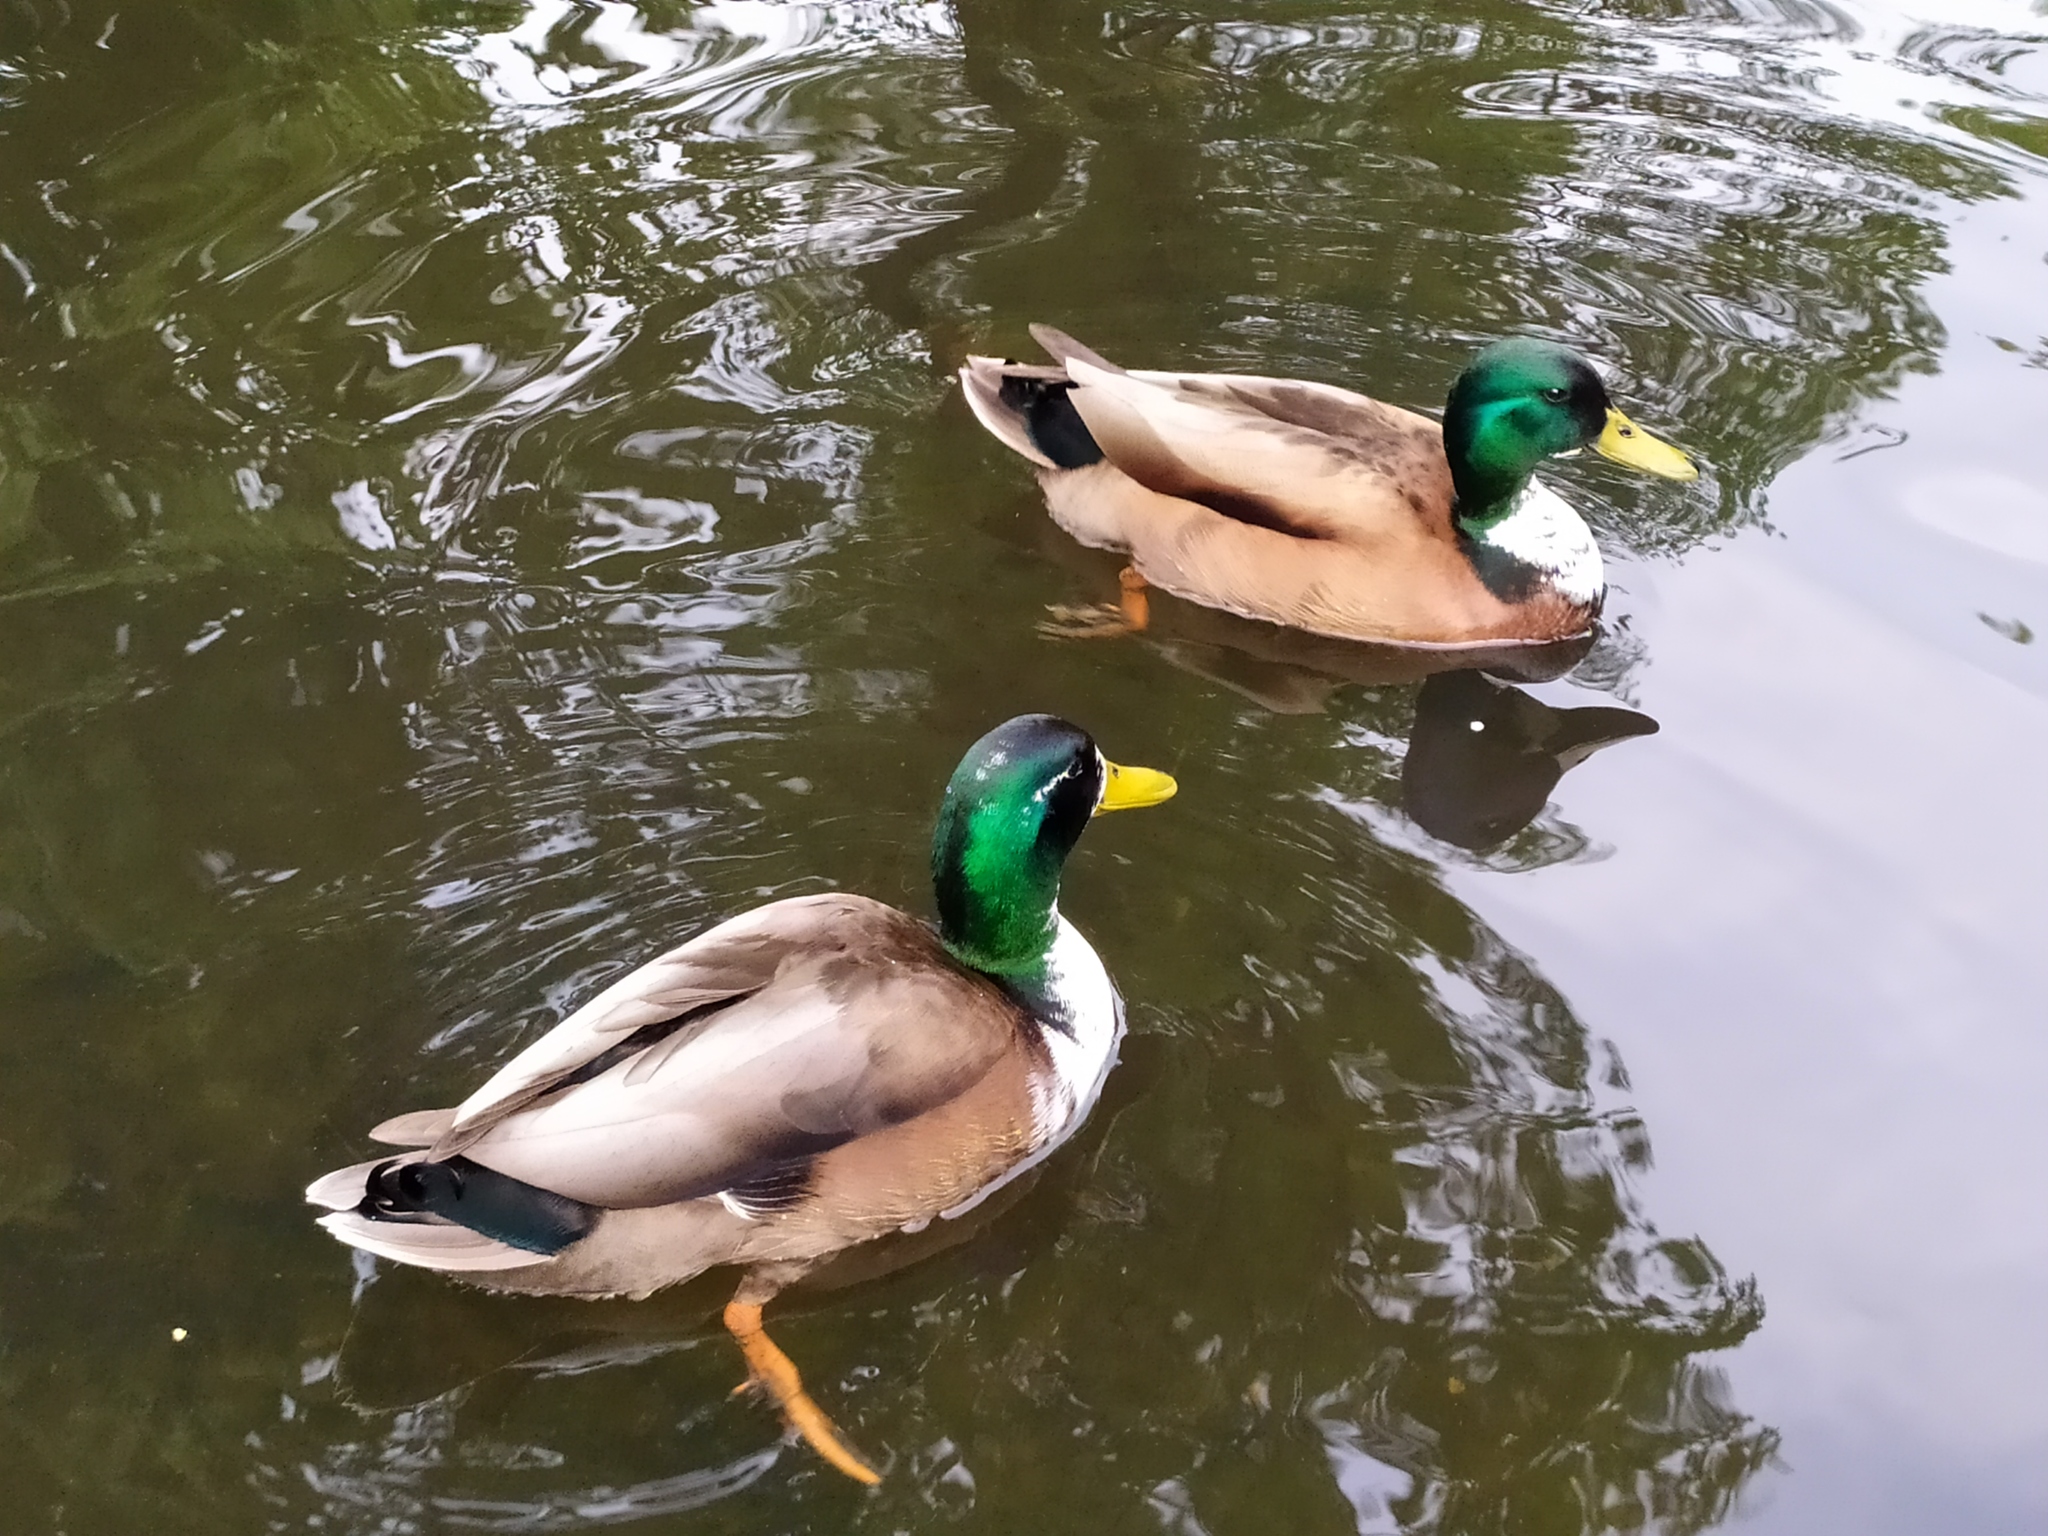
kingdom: Animalia
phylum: Chordata
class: Aves
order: Anseriformes
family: Anatidae
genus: Anas
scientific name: Anas platyrhynchos
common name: Mallard
